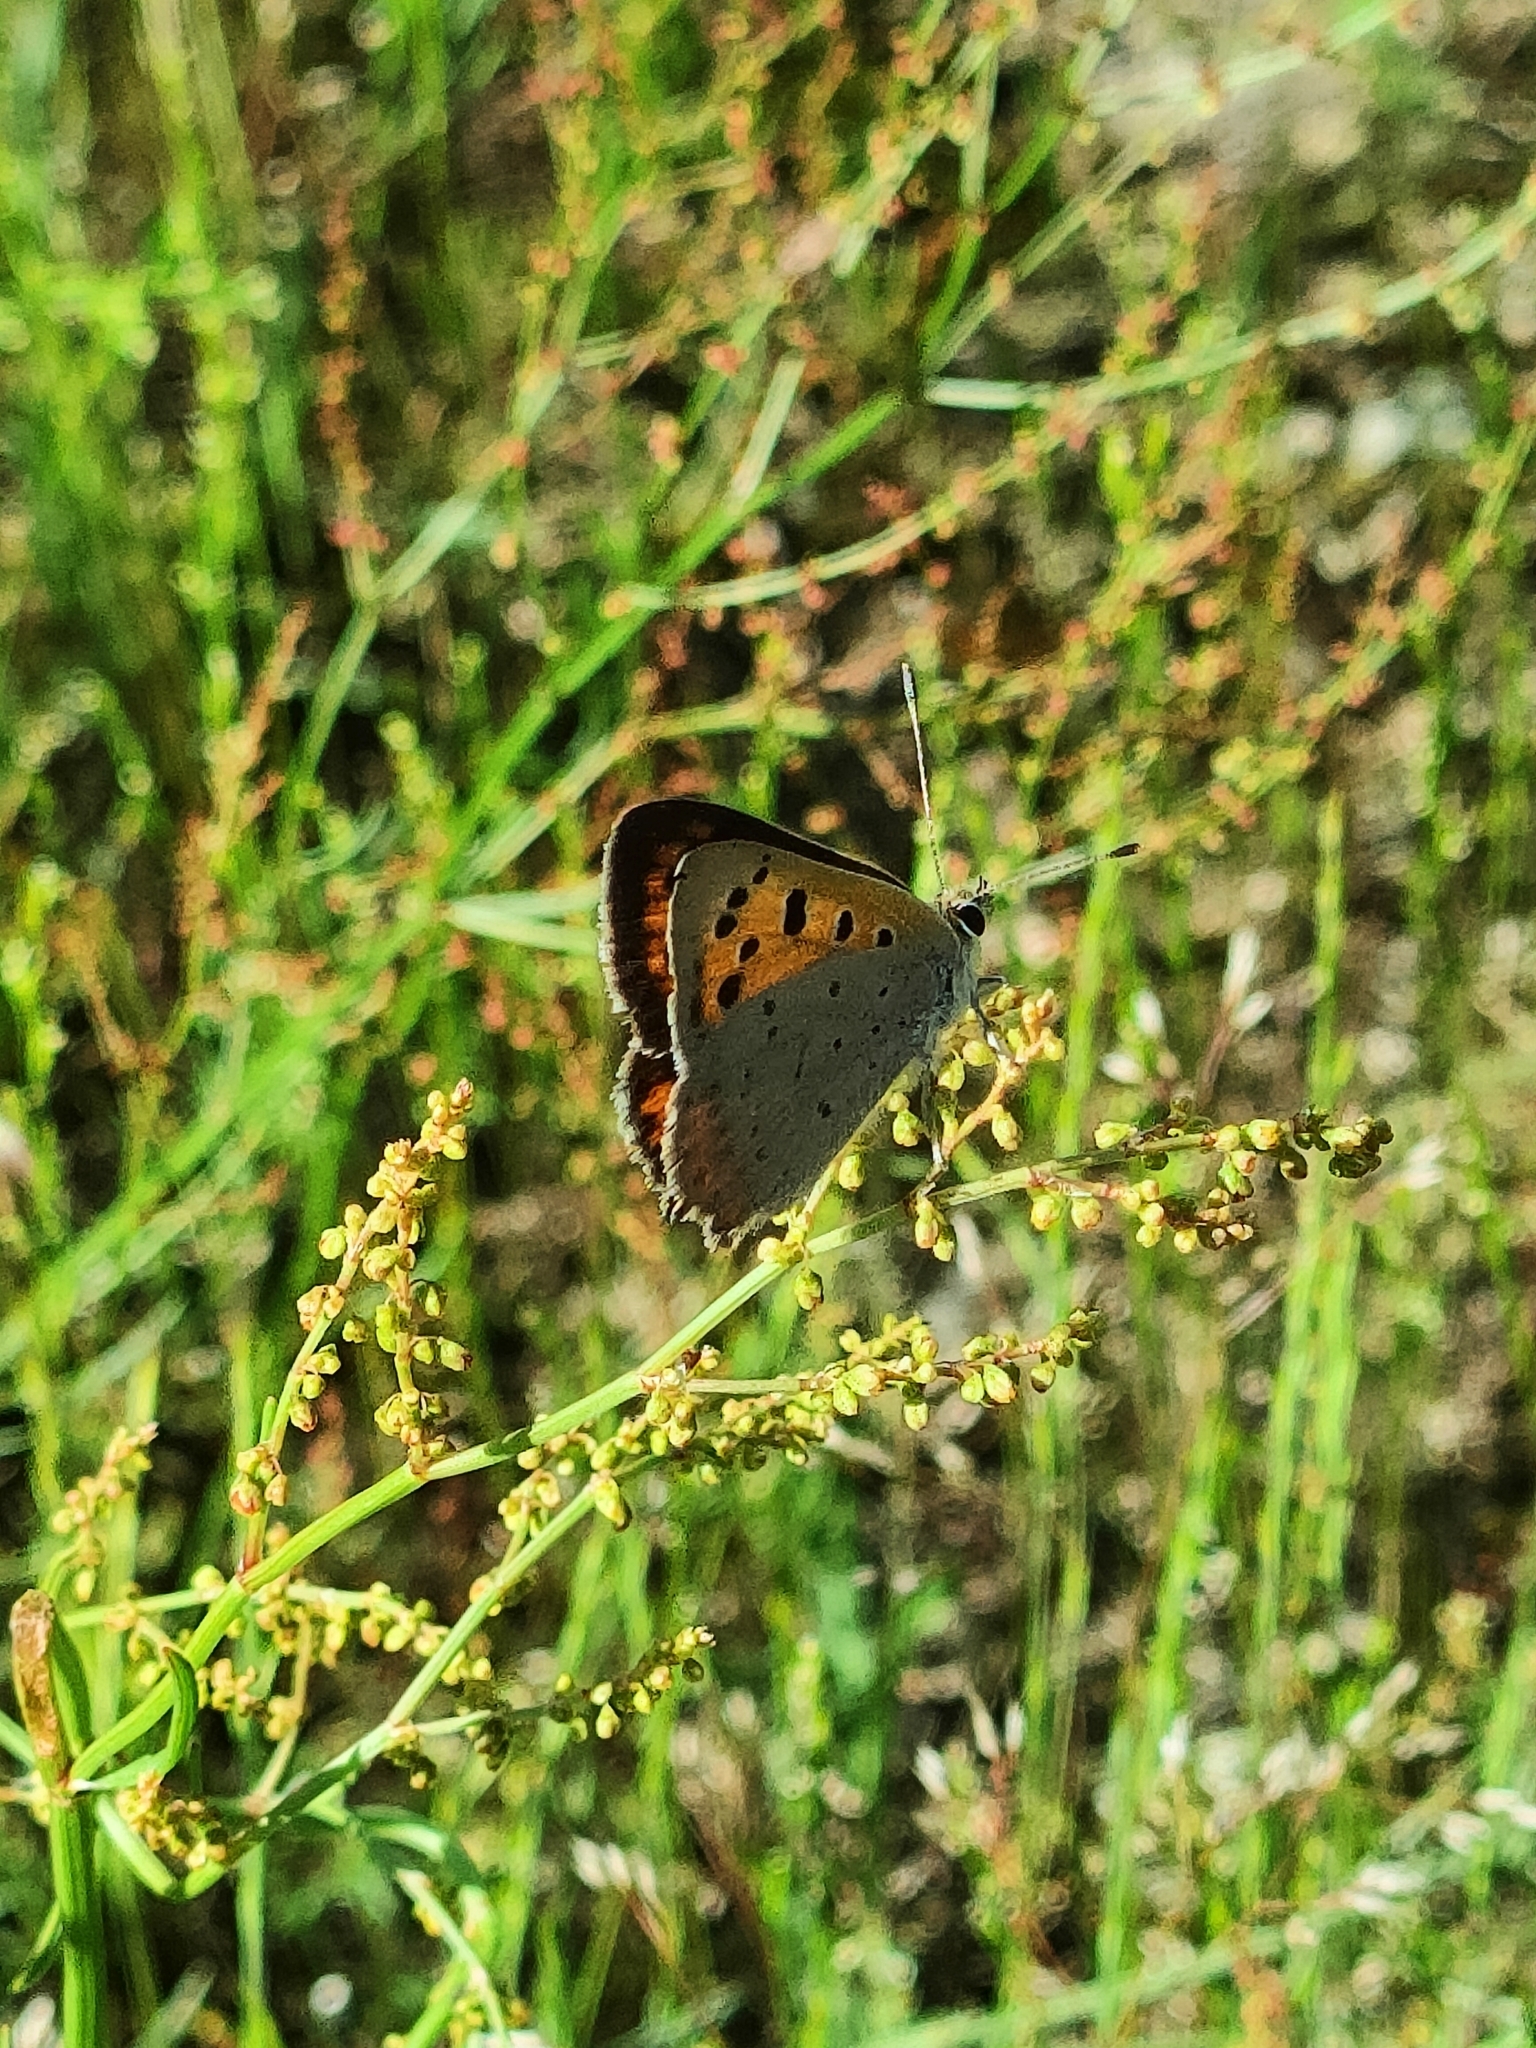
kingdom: Animalia
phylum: Arthropoda
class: Insecta
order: Lepidoptera
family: Lycaenidae
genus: Lycaena
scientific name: Lycaena phlaeas
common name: Small copper
